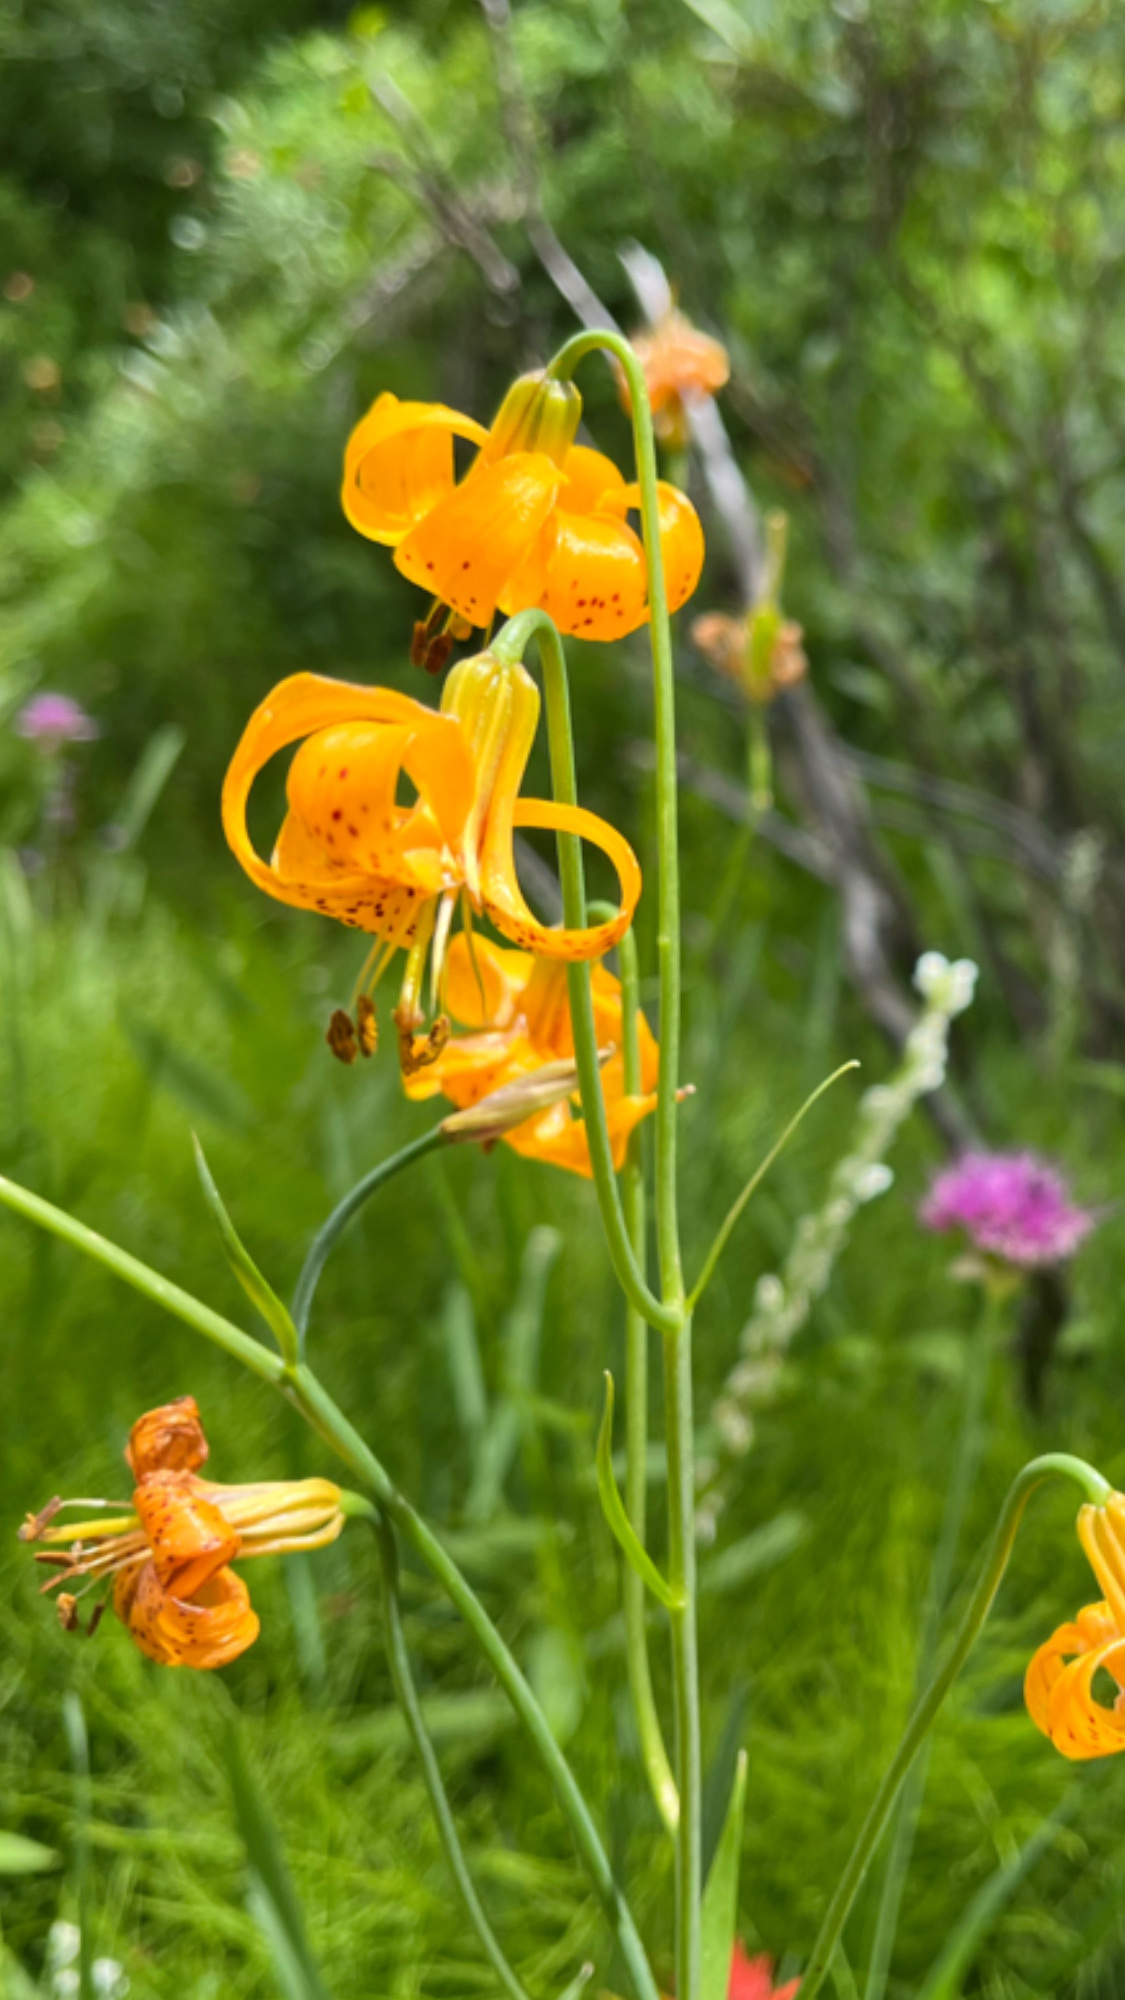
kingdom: Plantae
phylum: Tracheophyta
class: Liliopsida
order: Liliales
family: Liliaceae
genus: Lilium
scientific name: Lilium kelleyanum
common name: Kelley's lily
